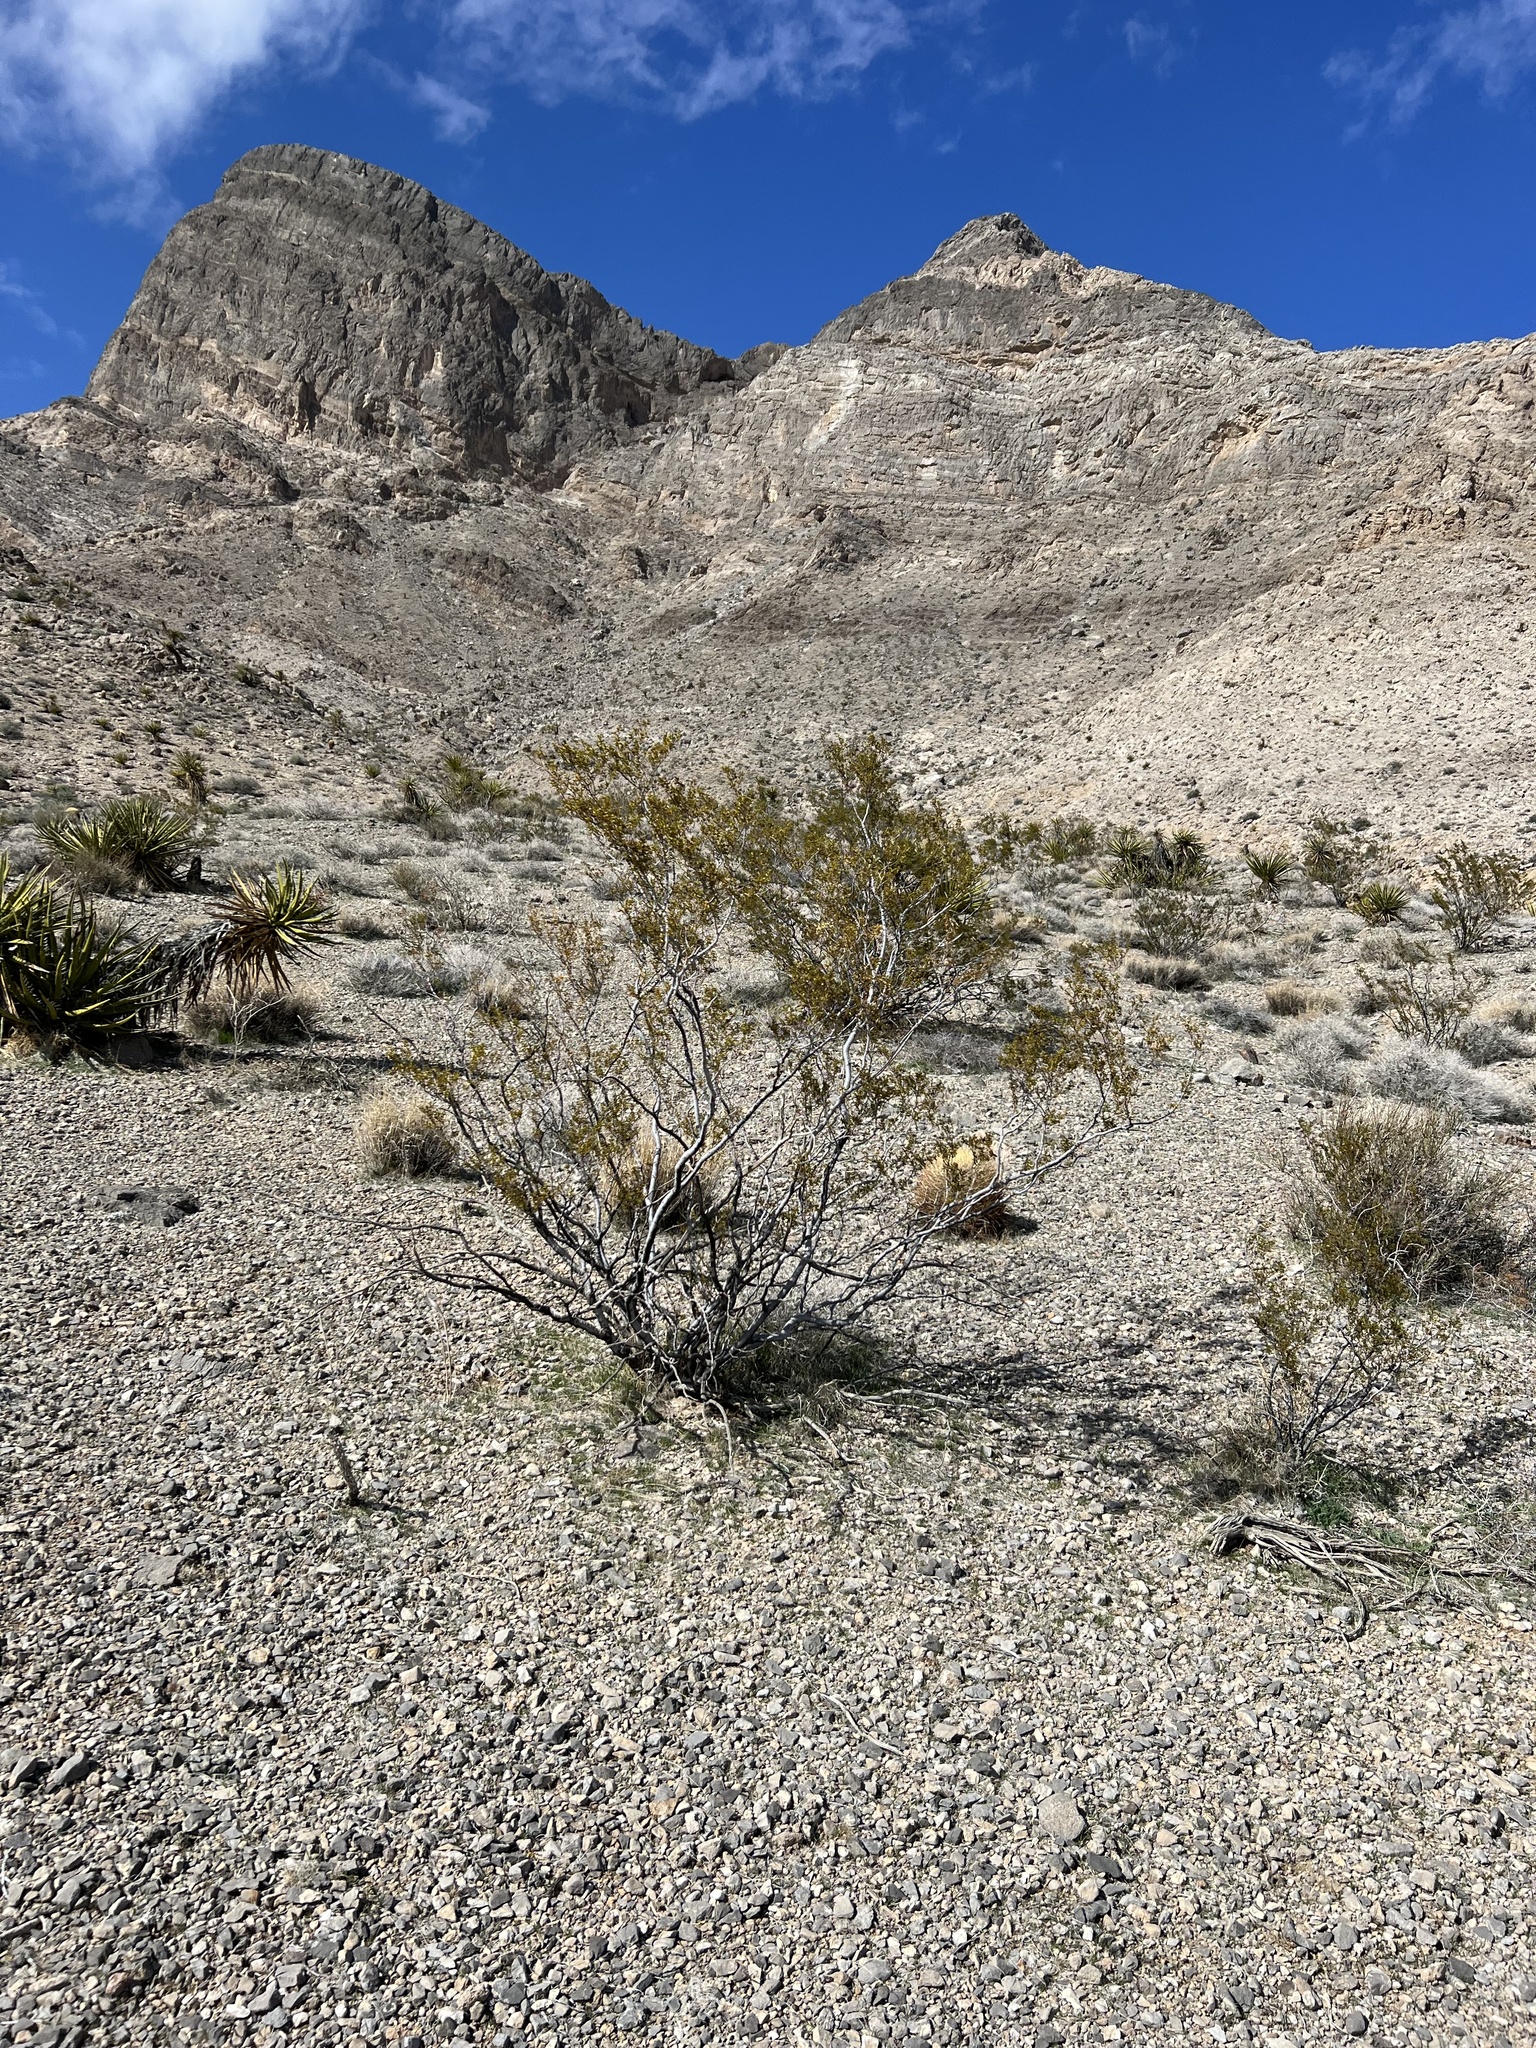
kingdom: Plantae
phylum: Tracheophyta
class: Magnoliopsida
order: Zygophyllales
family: Zygophyllaceae
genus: Larrea
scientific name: Larrea tridentata
